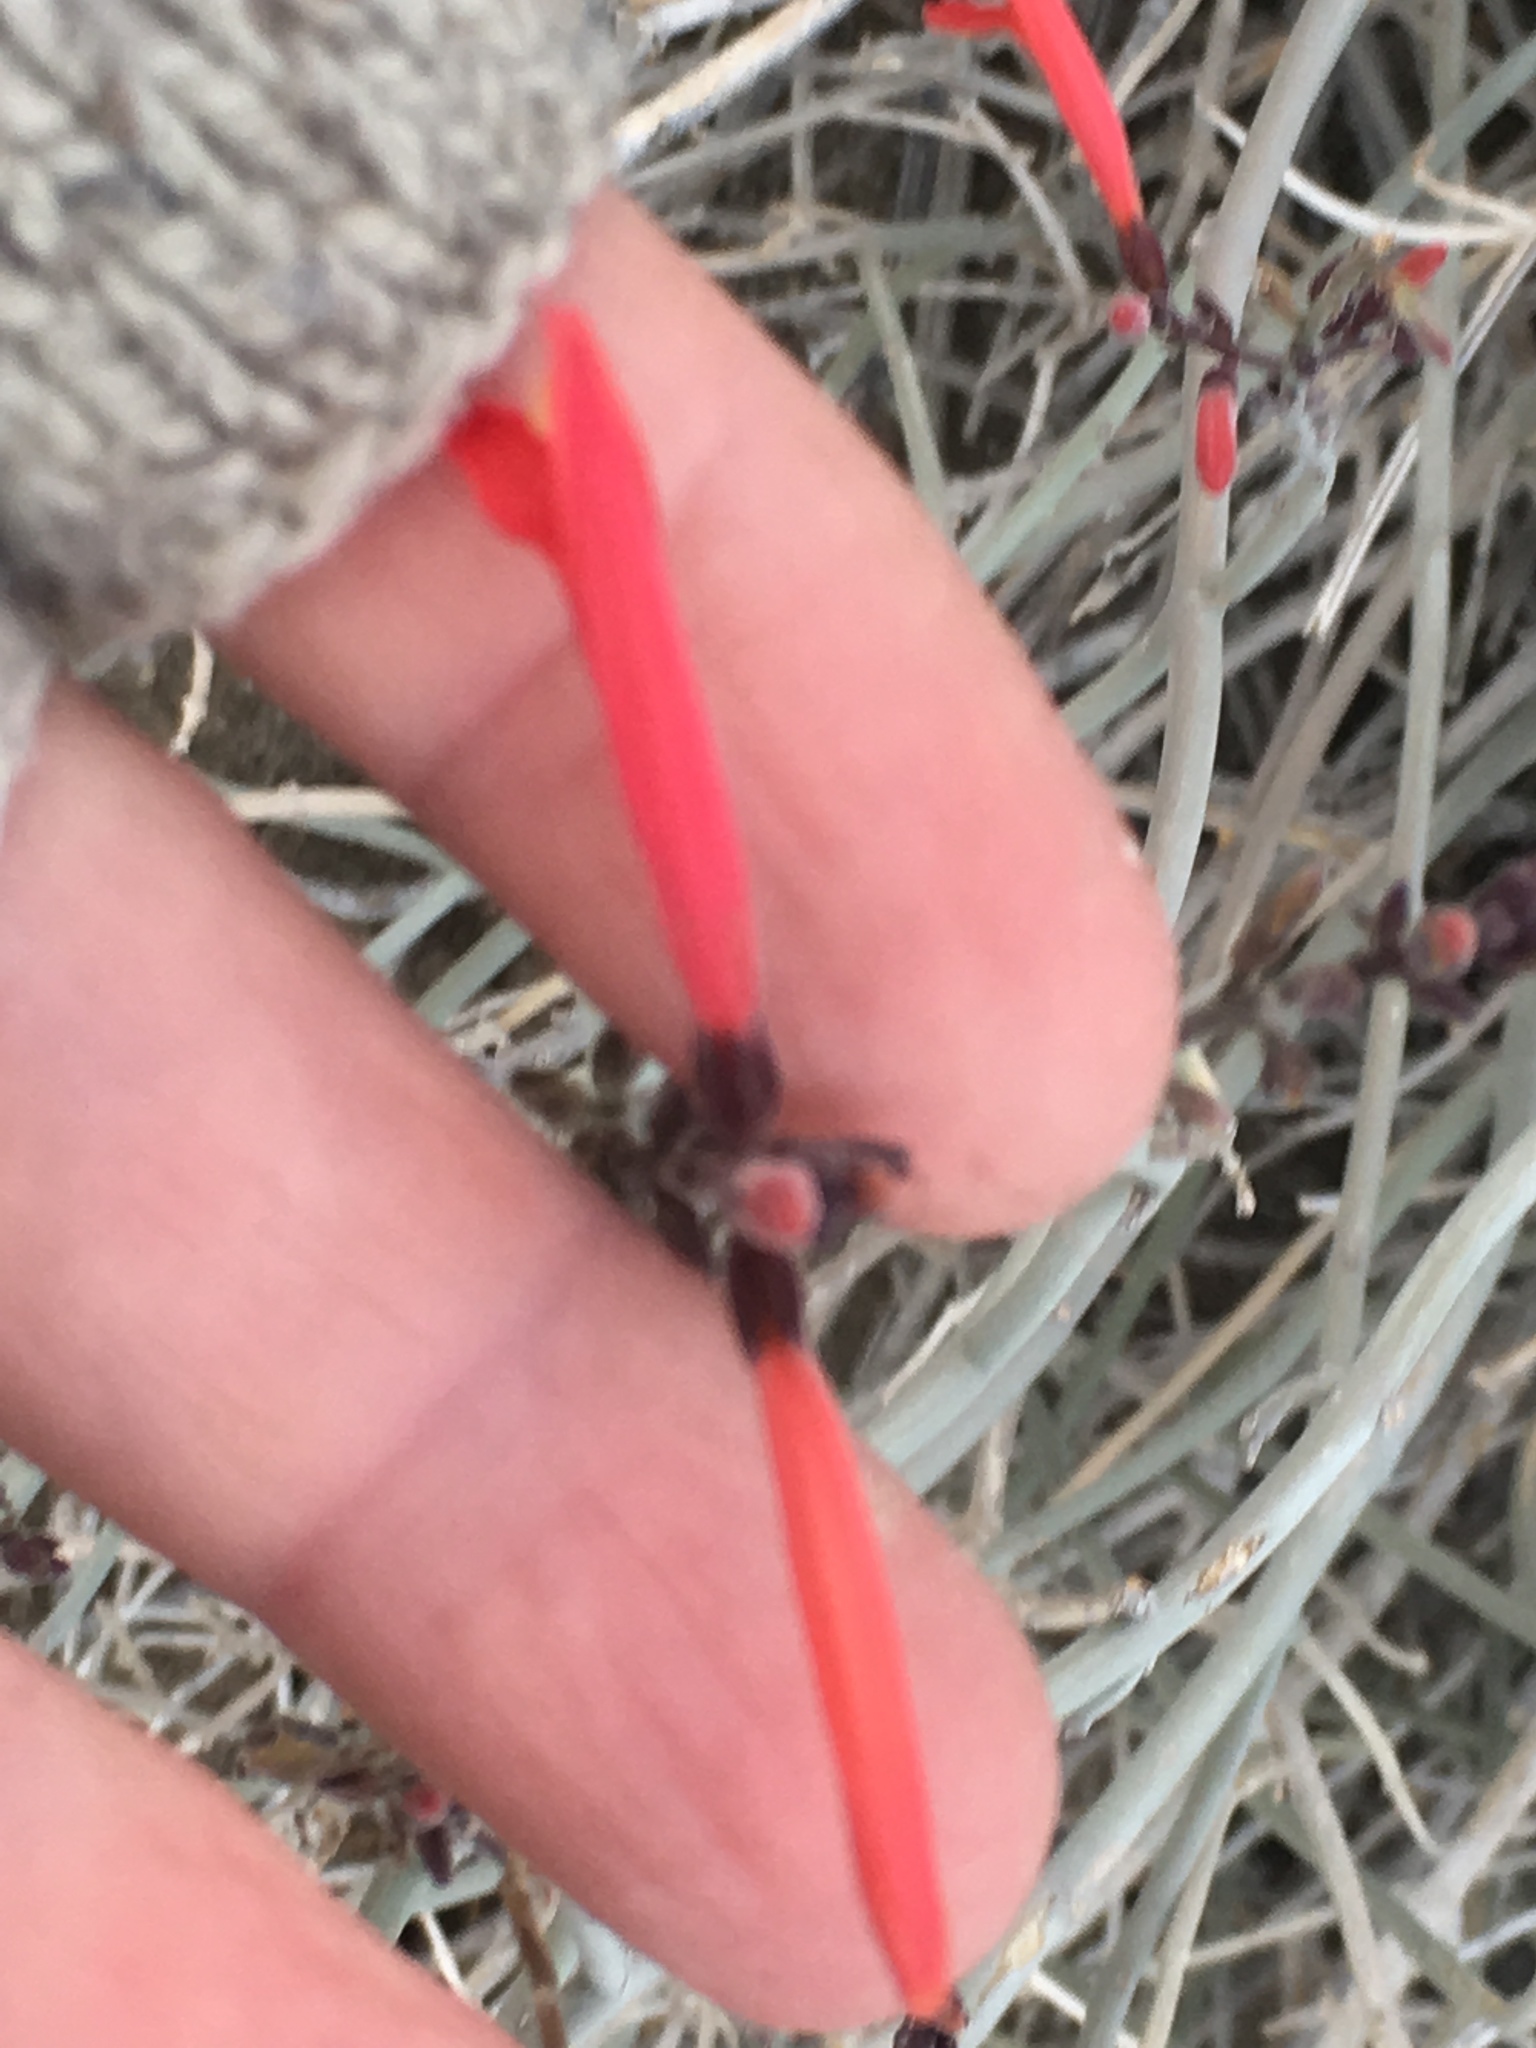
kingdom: Plantae
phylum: Tracheophyta
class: Magnoliopsida
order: Lamiales
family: Acanthaceae
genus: Justicia
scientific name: Justicia californica
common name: Chuparosa-honeysuckle
